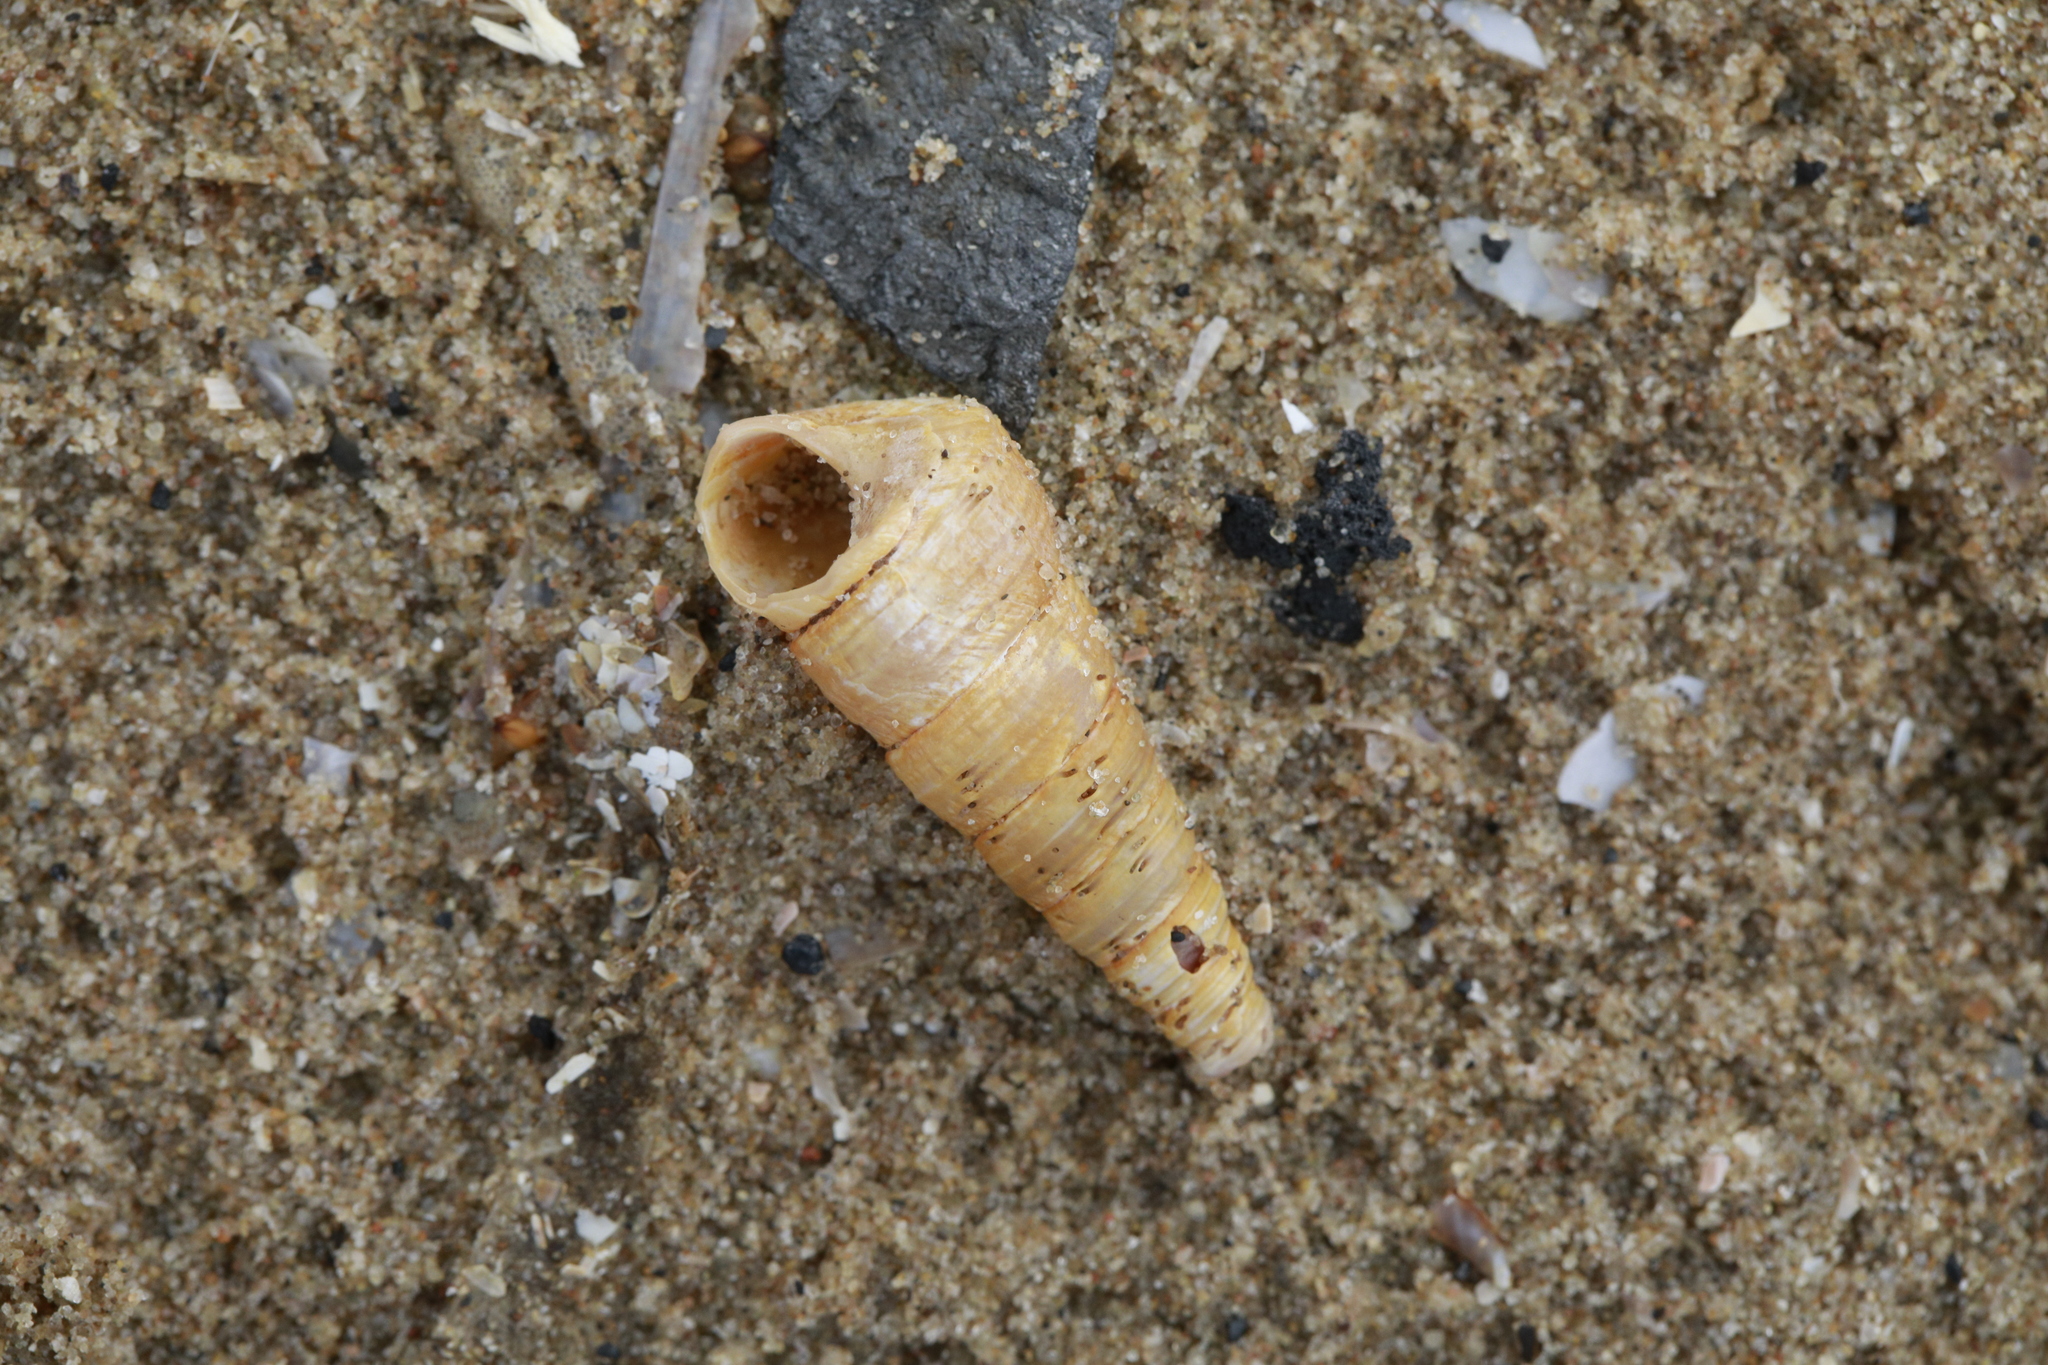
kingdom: Animalia
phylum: Mollusca
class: Gastropoda
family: Turritellidae
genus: Turritellinella
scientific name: Turritellinella tricarinata
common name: Auger shell
